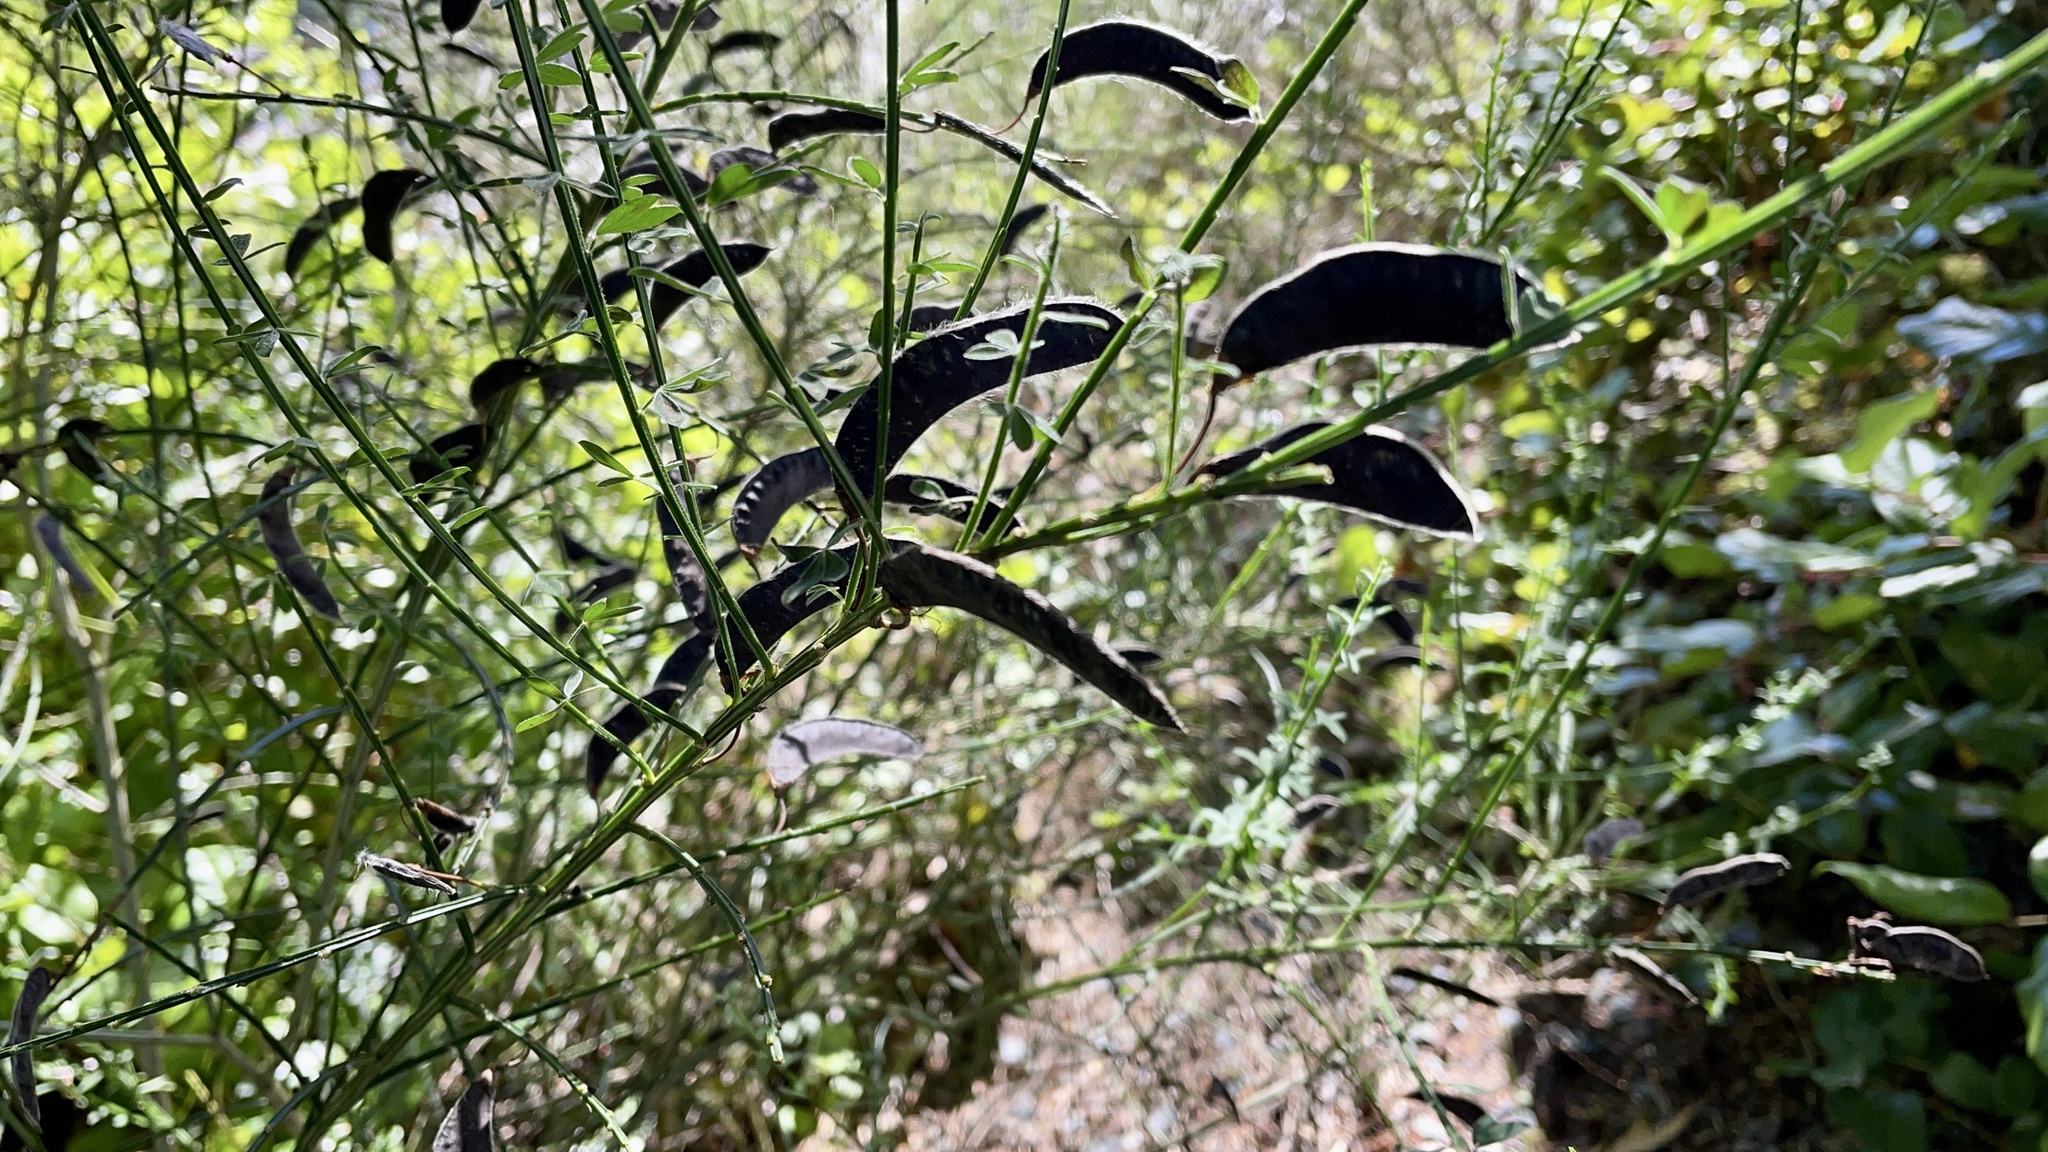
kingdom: Plantae
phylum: Tracheophyta
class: Magnoliopsida
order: Fabales
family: Fabaceae
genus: Cytisus
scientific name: Cytisus scoparius
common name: Scotch broom
